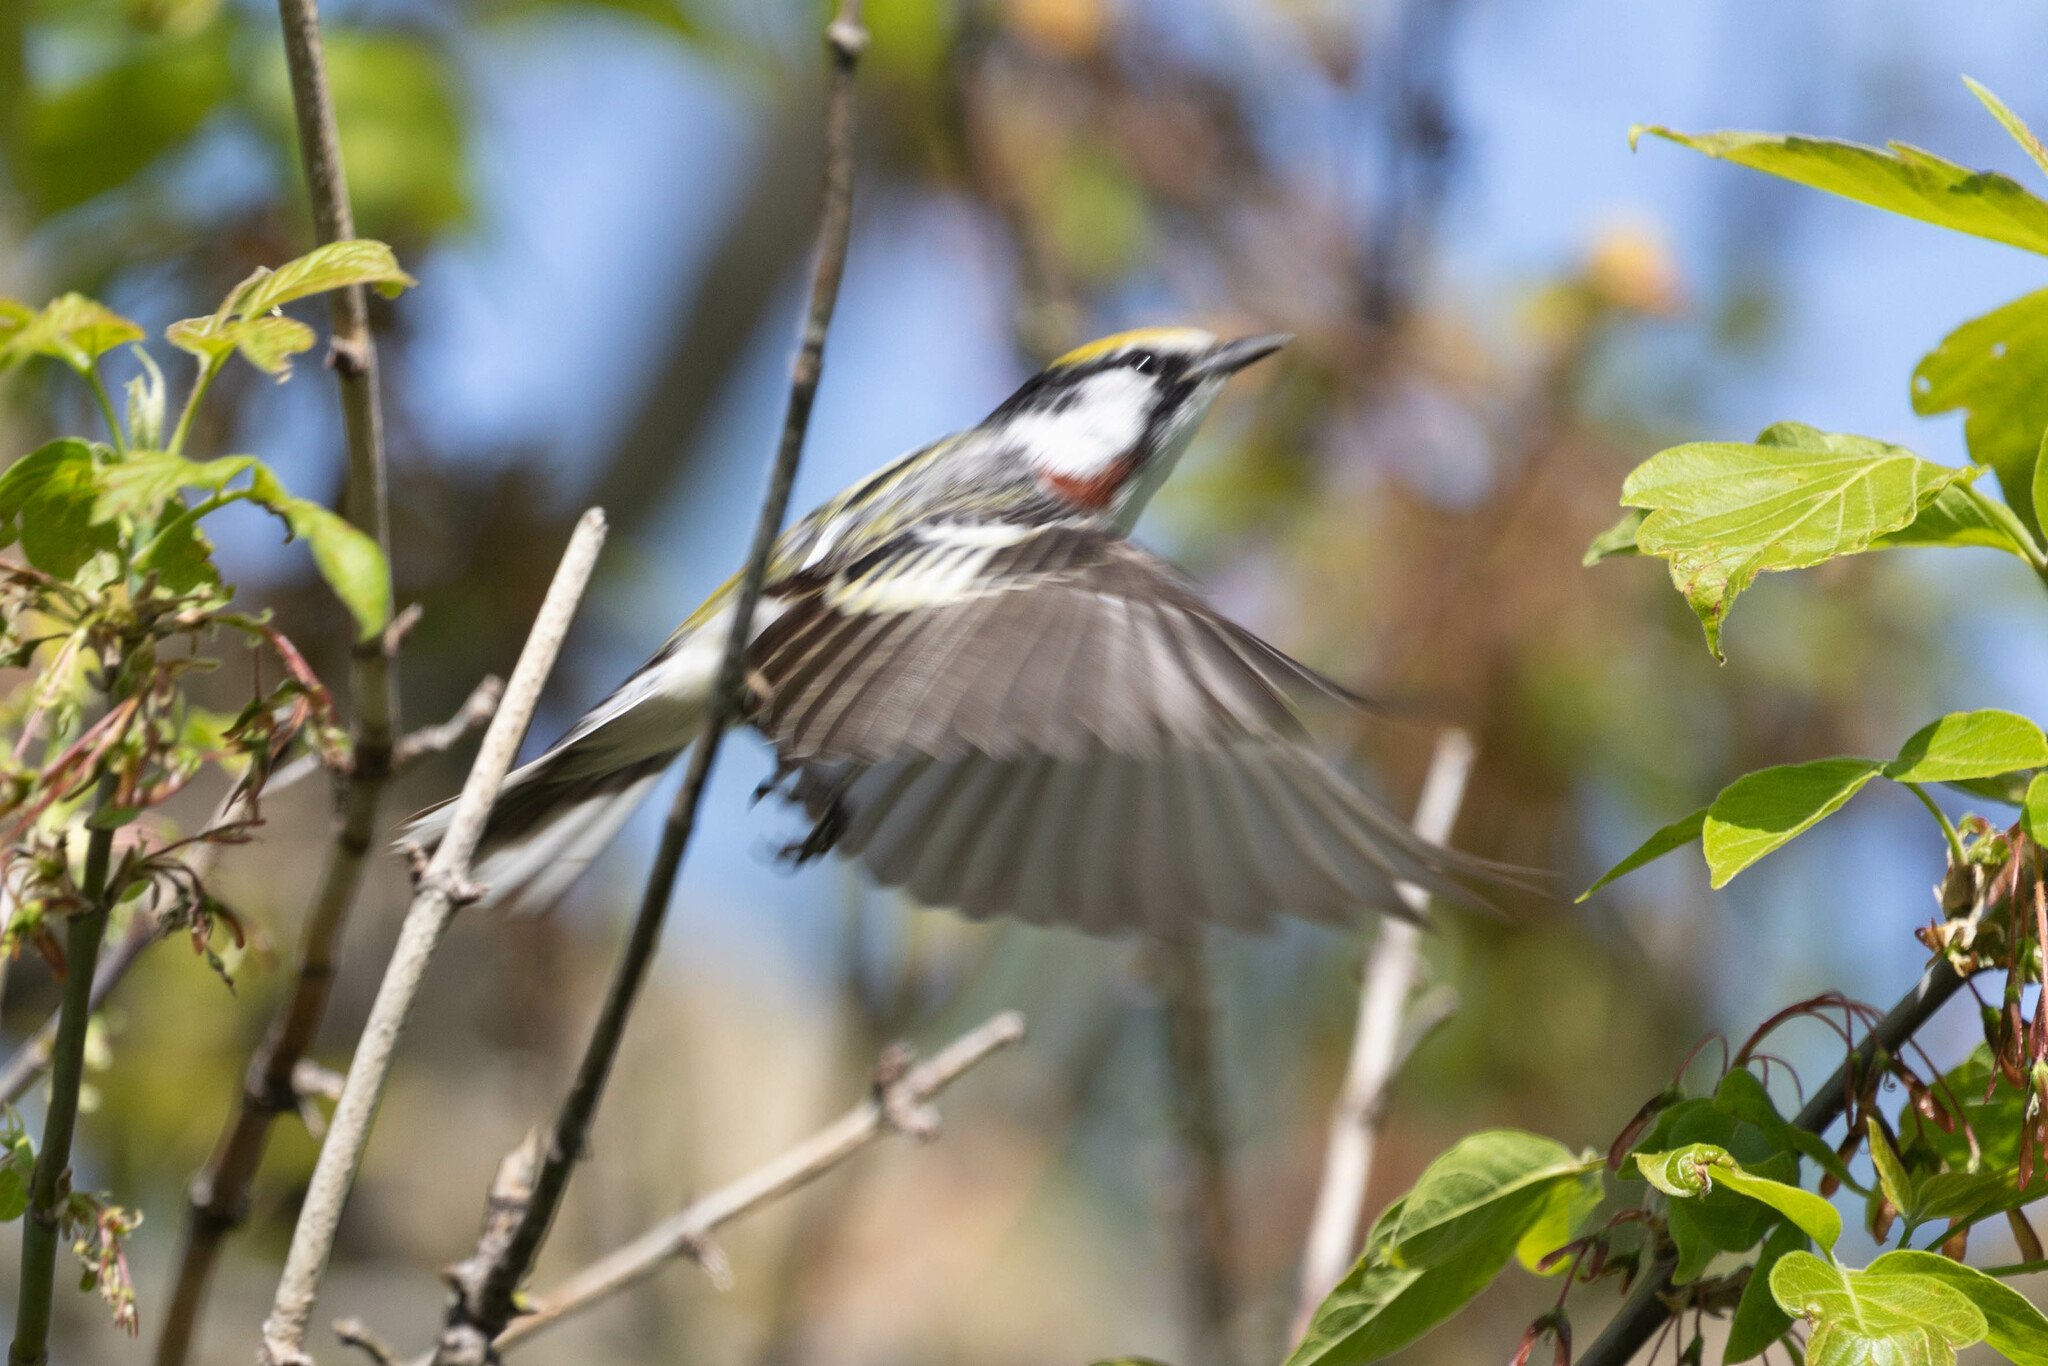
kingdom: Animalia
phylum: Chordata
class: Aves
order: Passeriformes
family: Parulidae
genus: Setophaga
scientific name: Setophaga pensylvanica
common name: Chestnut-sided warbler
